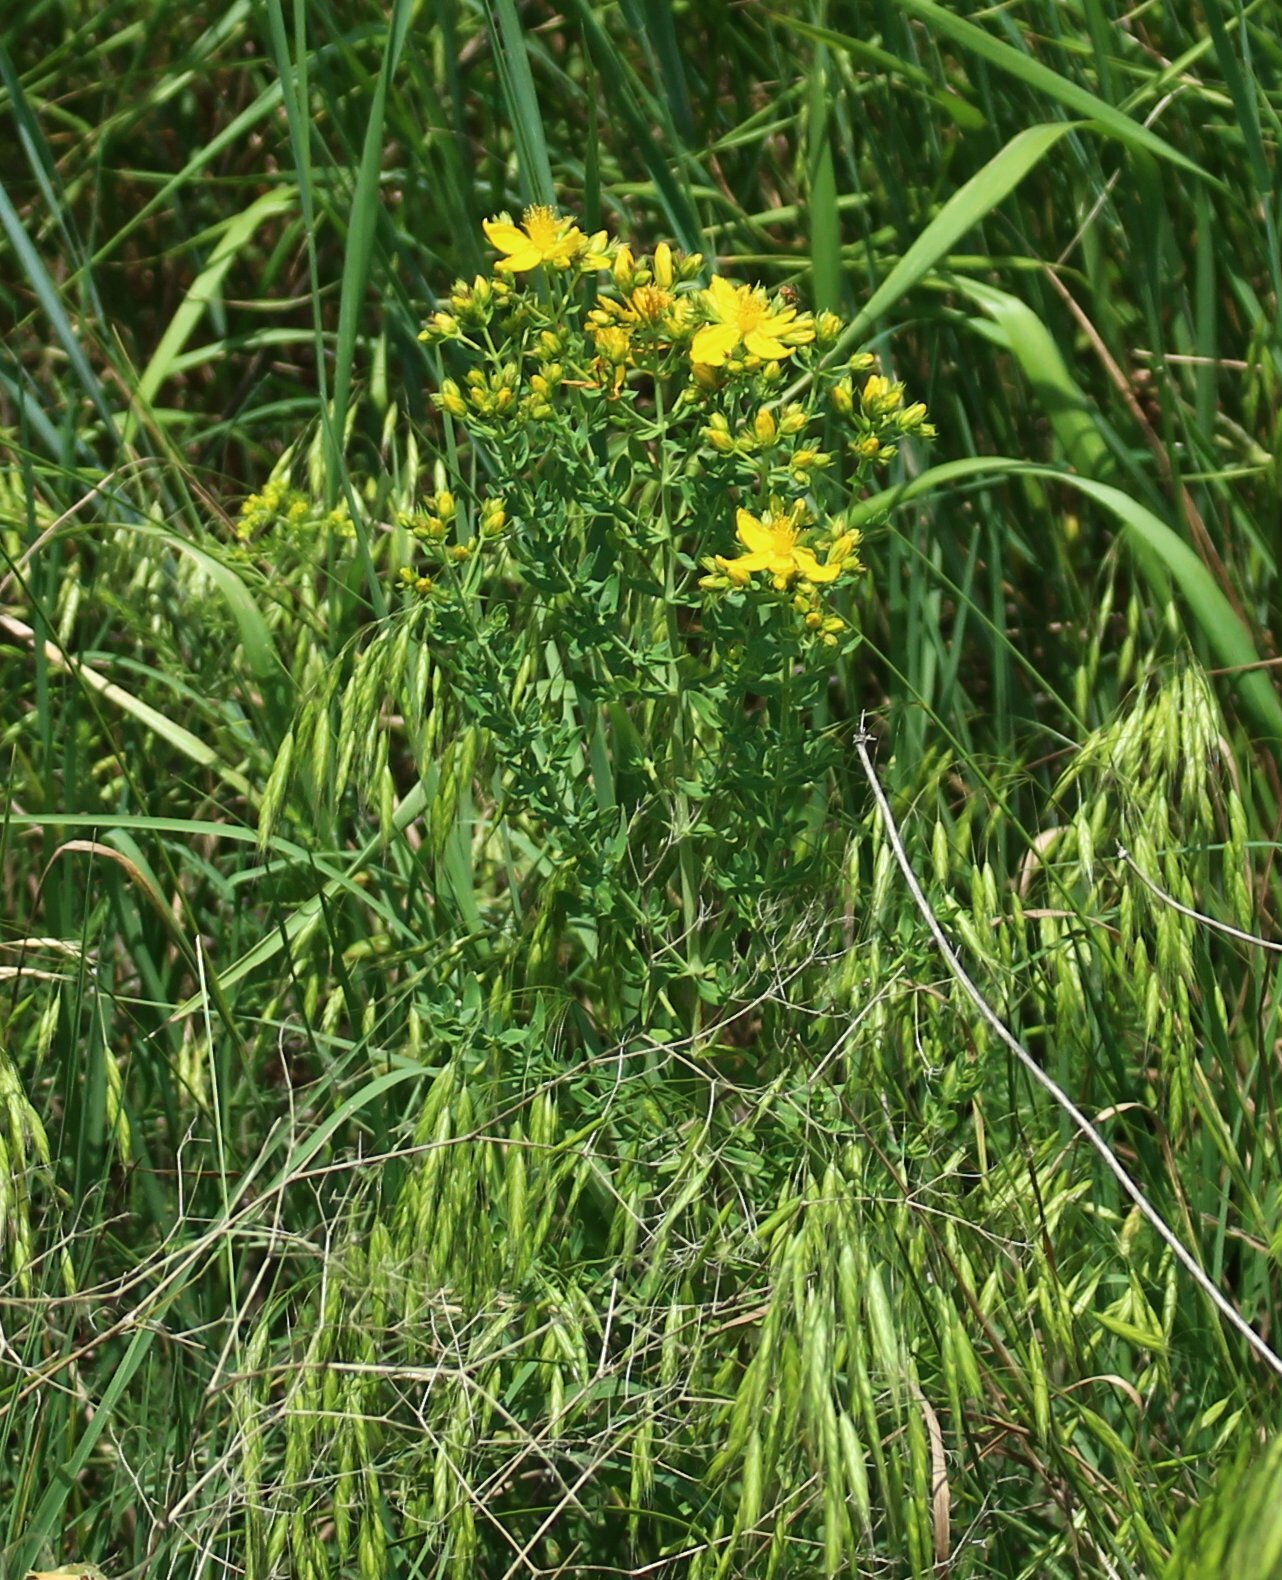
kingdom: Plantae
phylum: Tracheophyta
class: Magnoliopsida
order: Malpighiales
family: Hypericaceae
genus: Hypericum
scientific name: Hypericum perforatum
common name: Common st. johnswort
